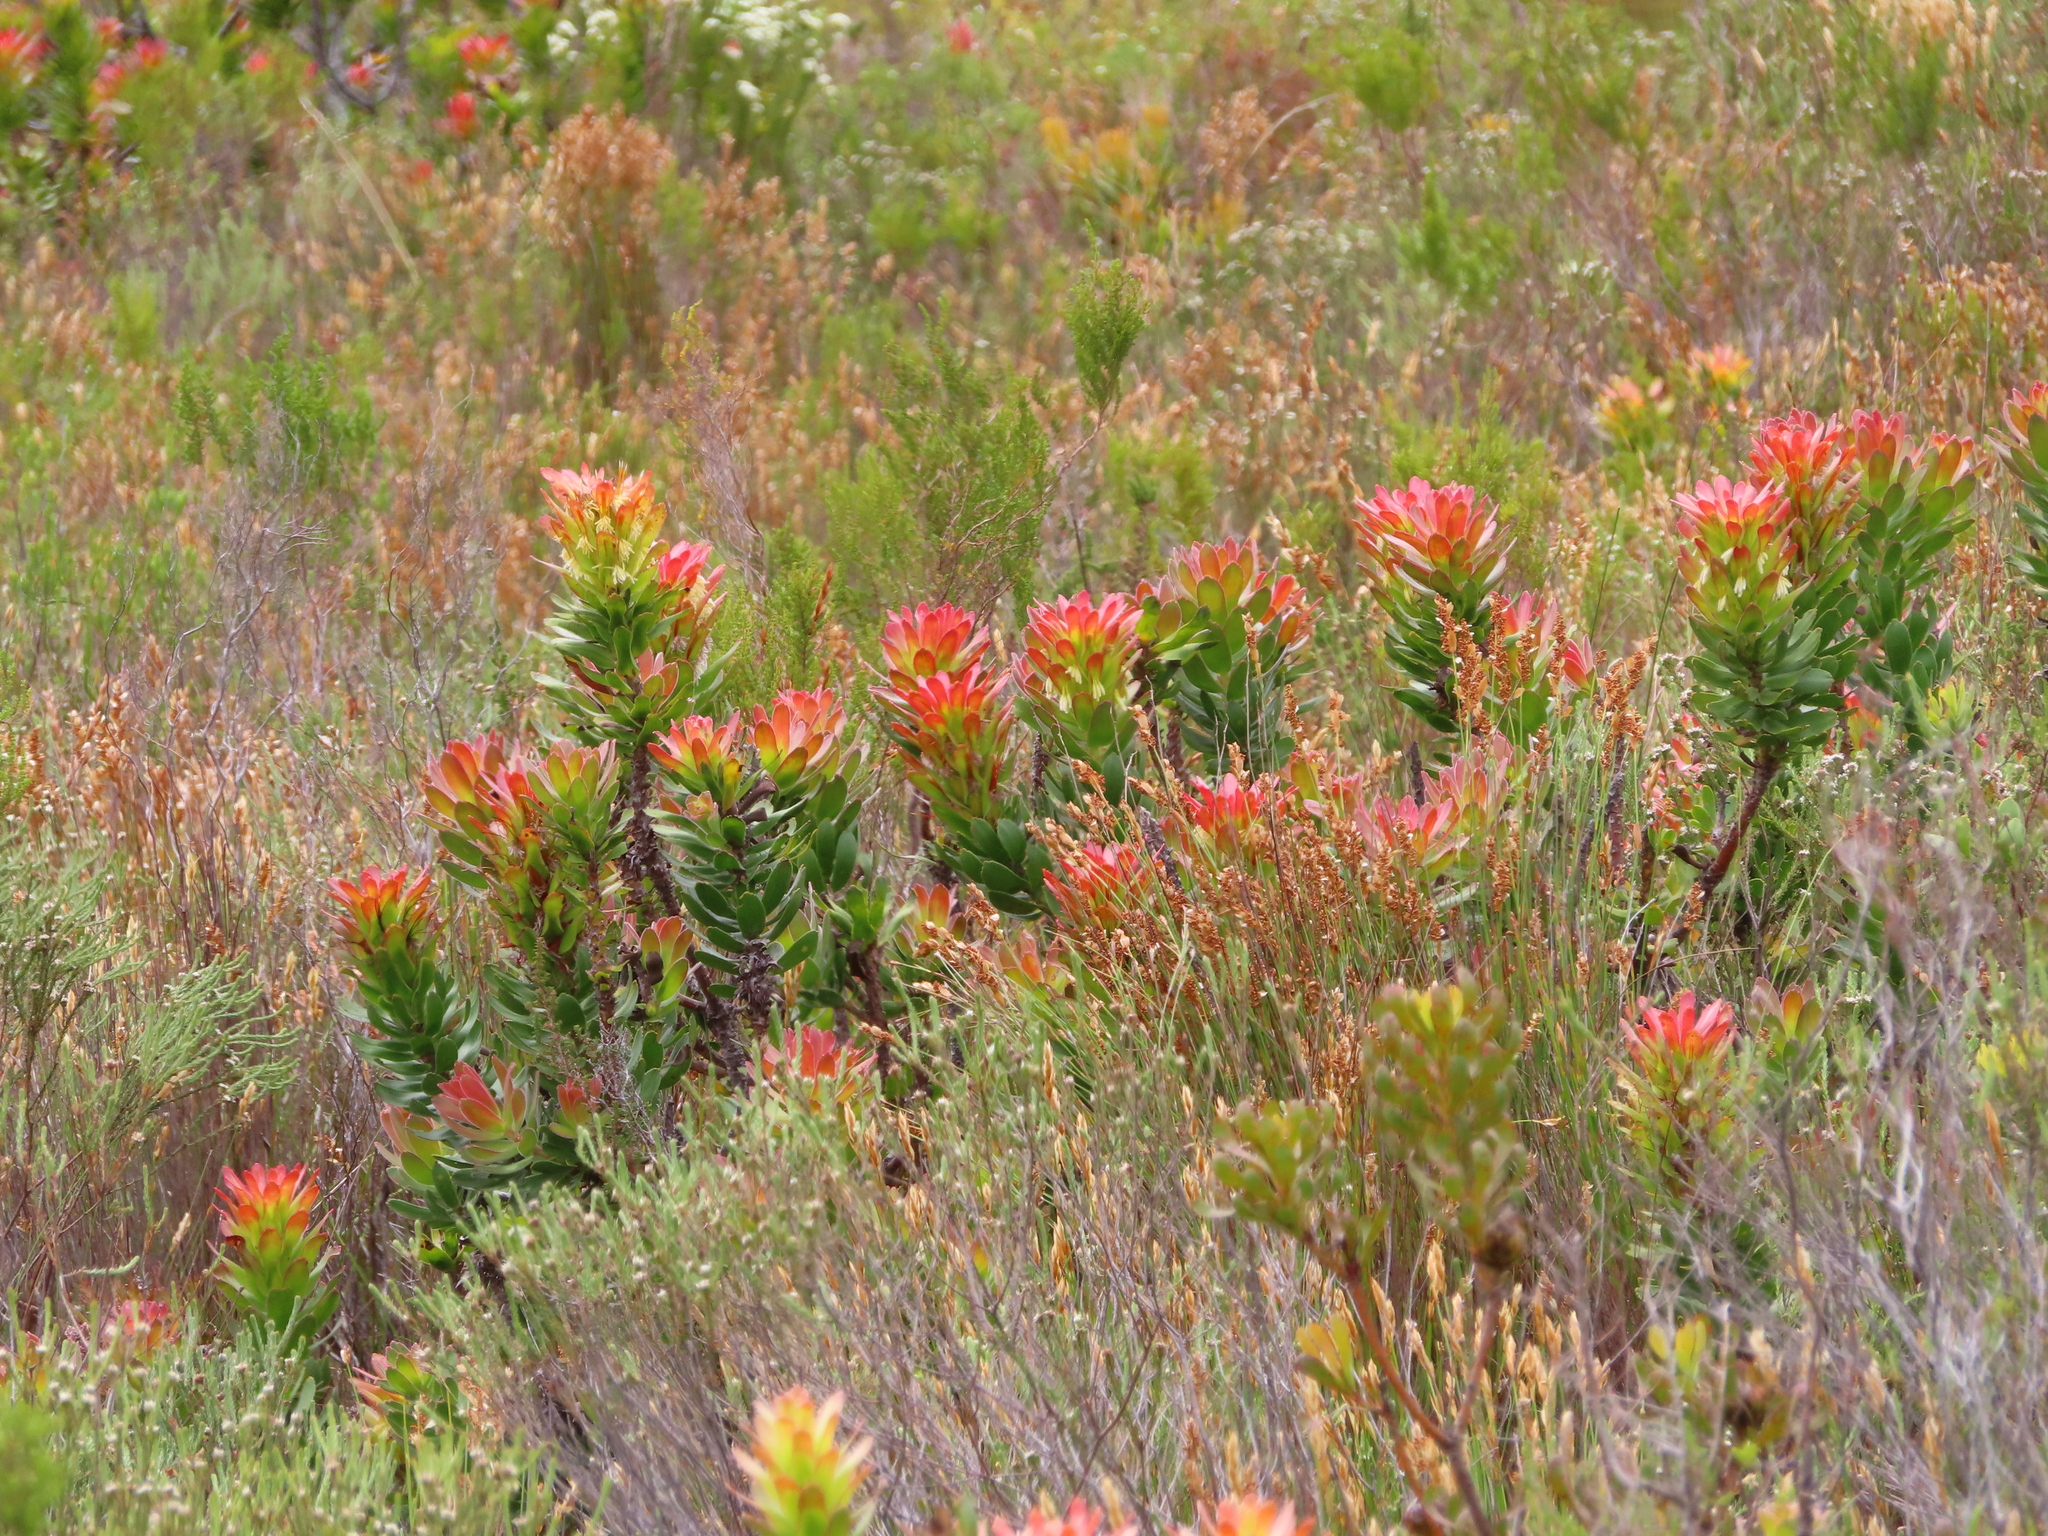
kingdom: Plantae
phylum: Tracheophyta
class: Magnoliopsida
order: Proteales
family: Proteaceae
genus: Mimetes
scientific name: Mimetes cucullatus
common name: Common pagoda
